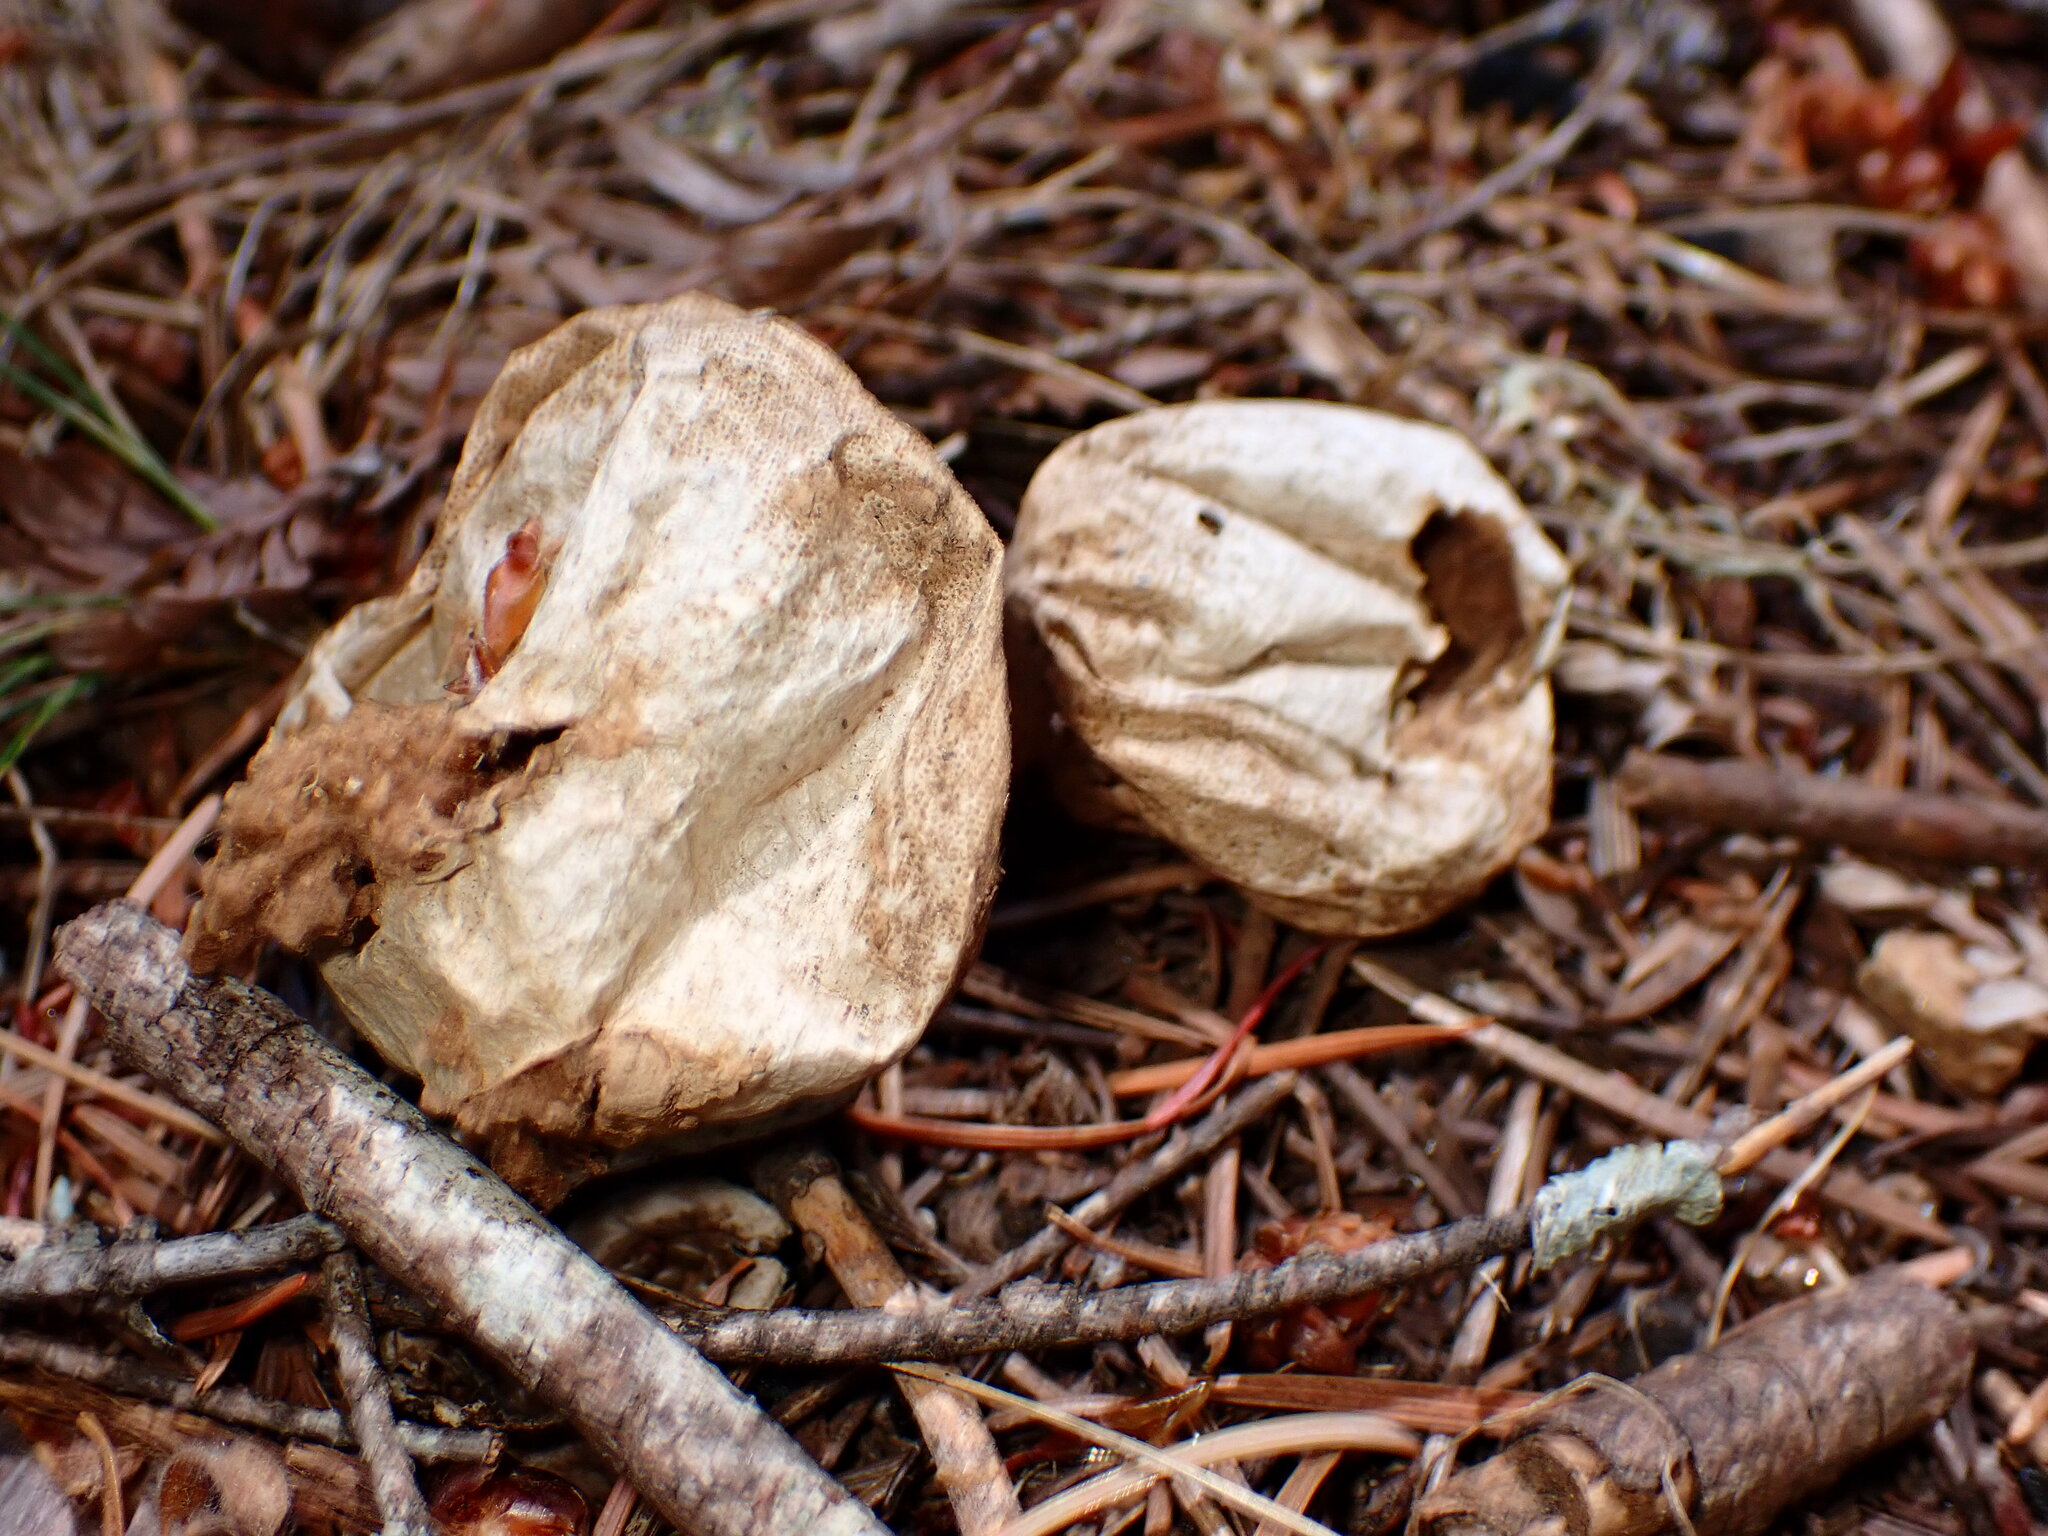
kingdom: Fungi
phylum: Basidiomycota
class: Agaricomycetes
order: Agaricales
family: Lycoperdaceae
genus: Lycoperdon
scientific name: Lycoperdon perlatum
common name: Common puffball
